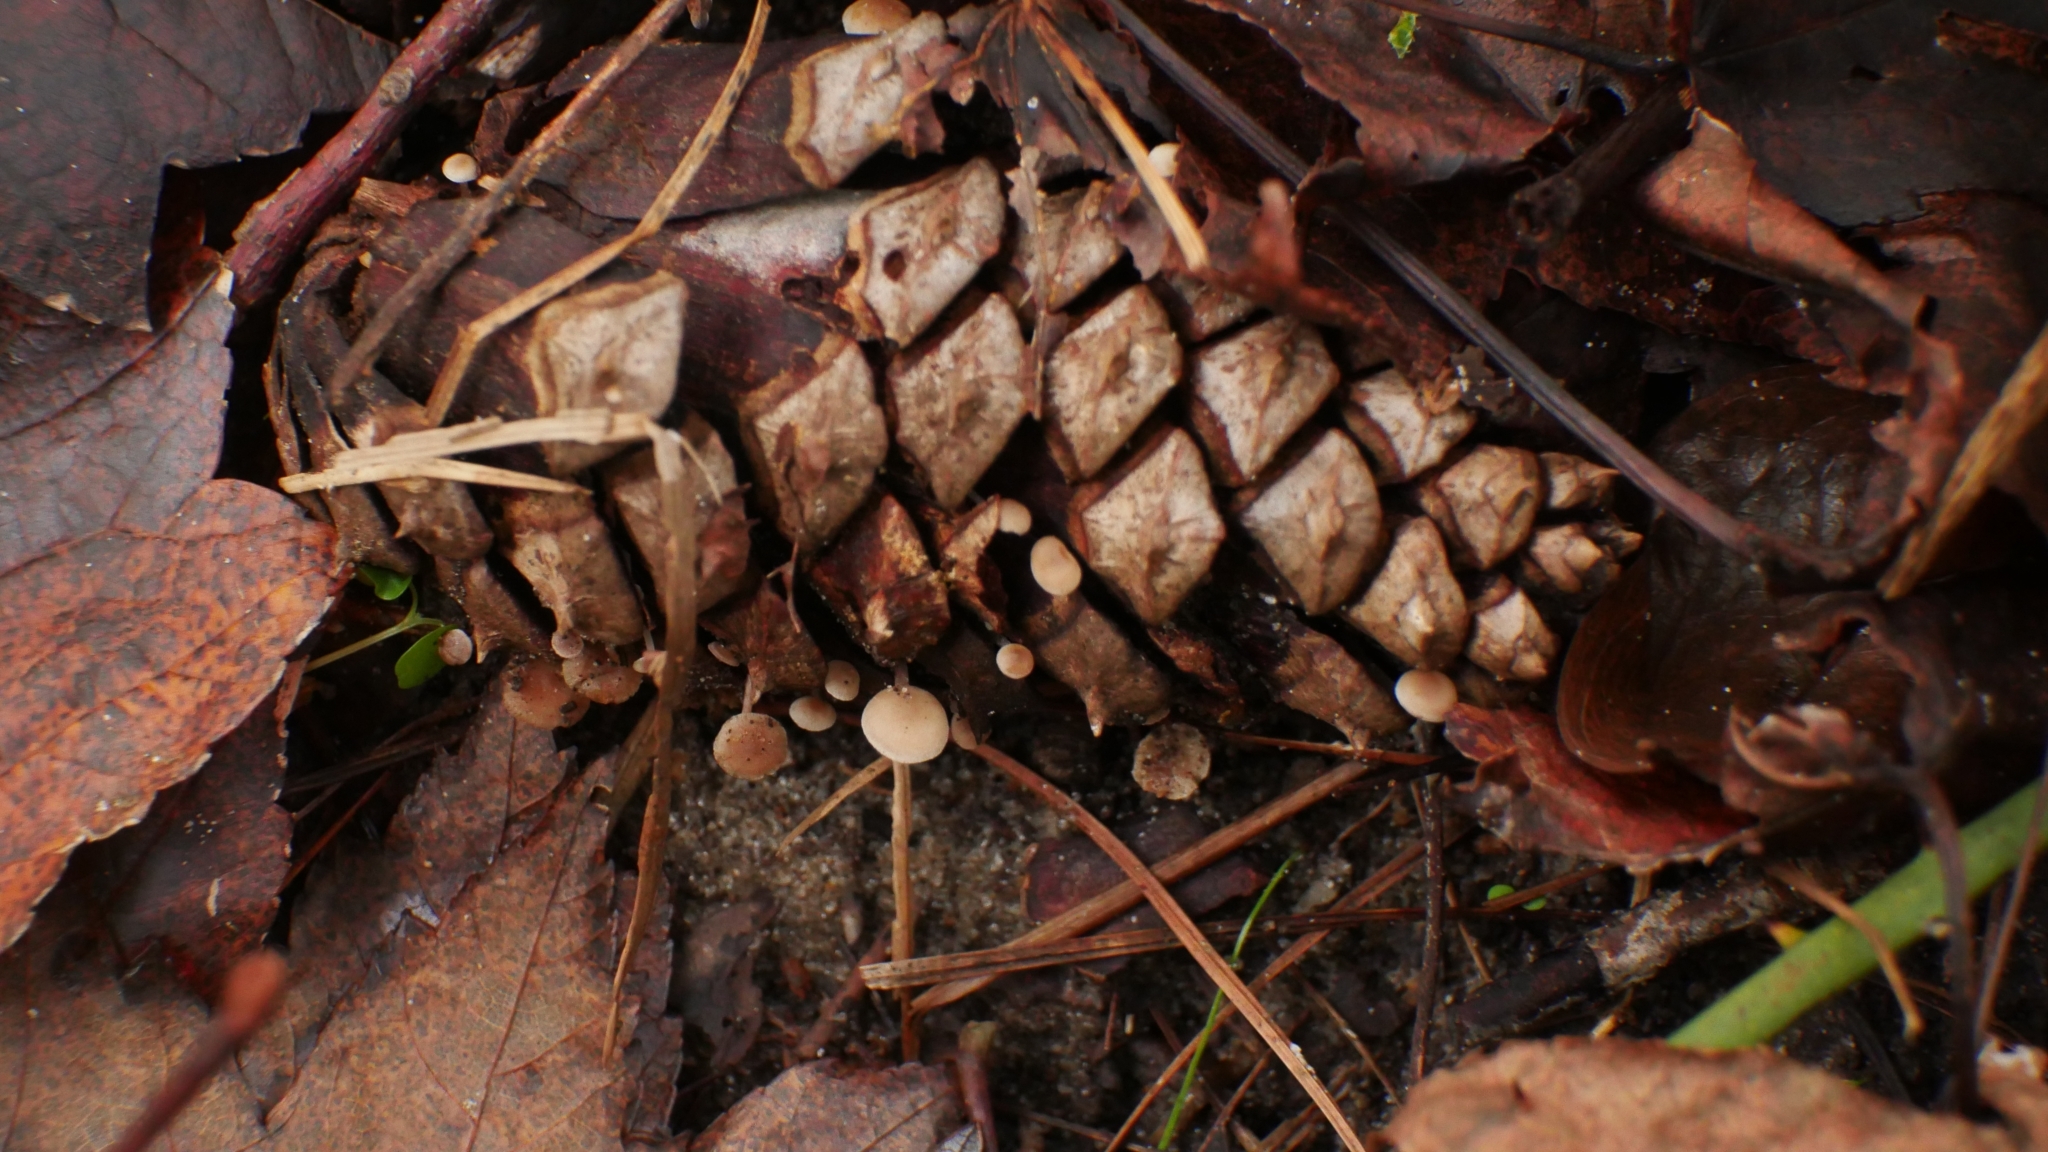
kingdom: Fungi
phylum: Basidiomycota
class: Agaricomycetes
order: Agaricales
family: Marasmiaceae
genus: Baeospora
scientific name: Baeospora myosura
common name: Conifercone cap
